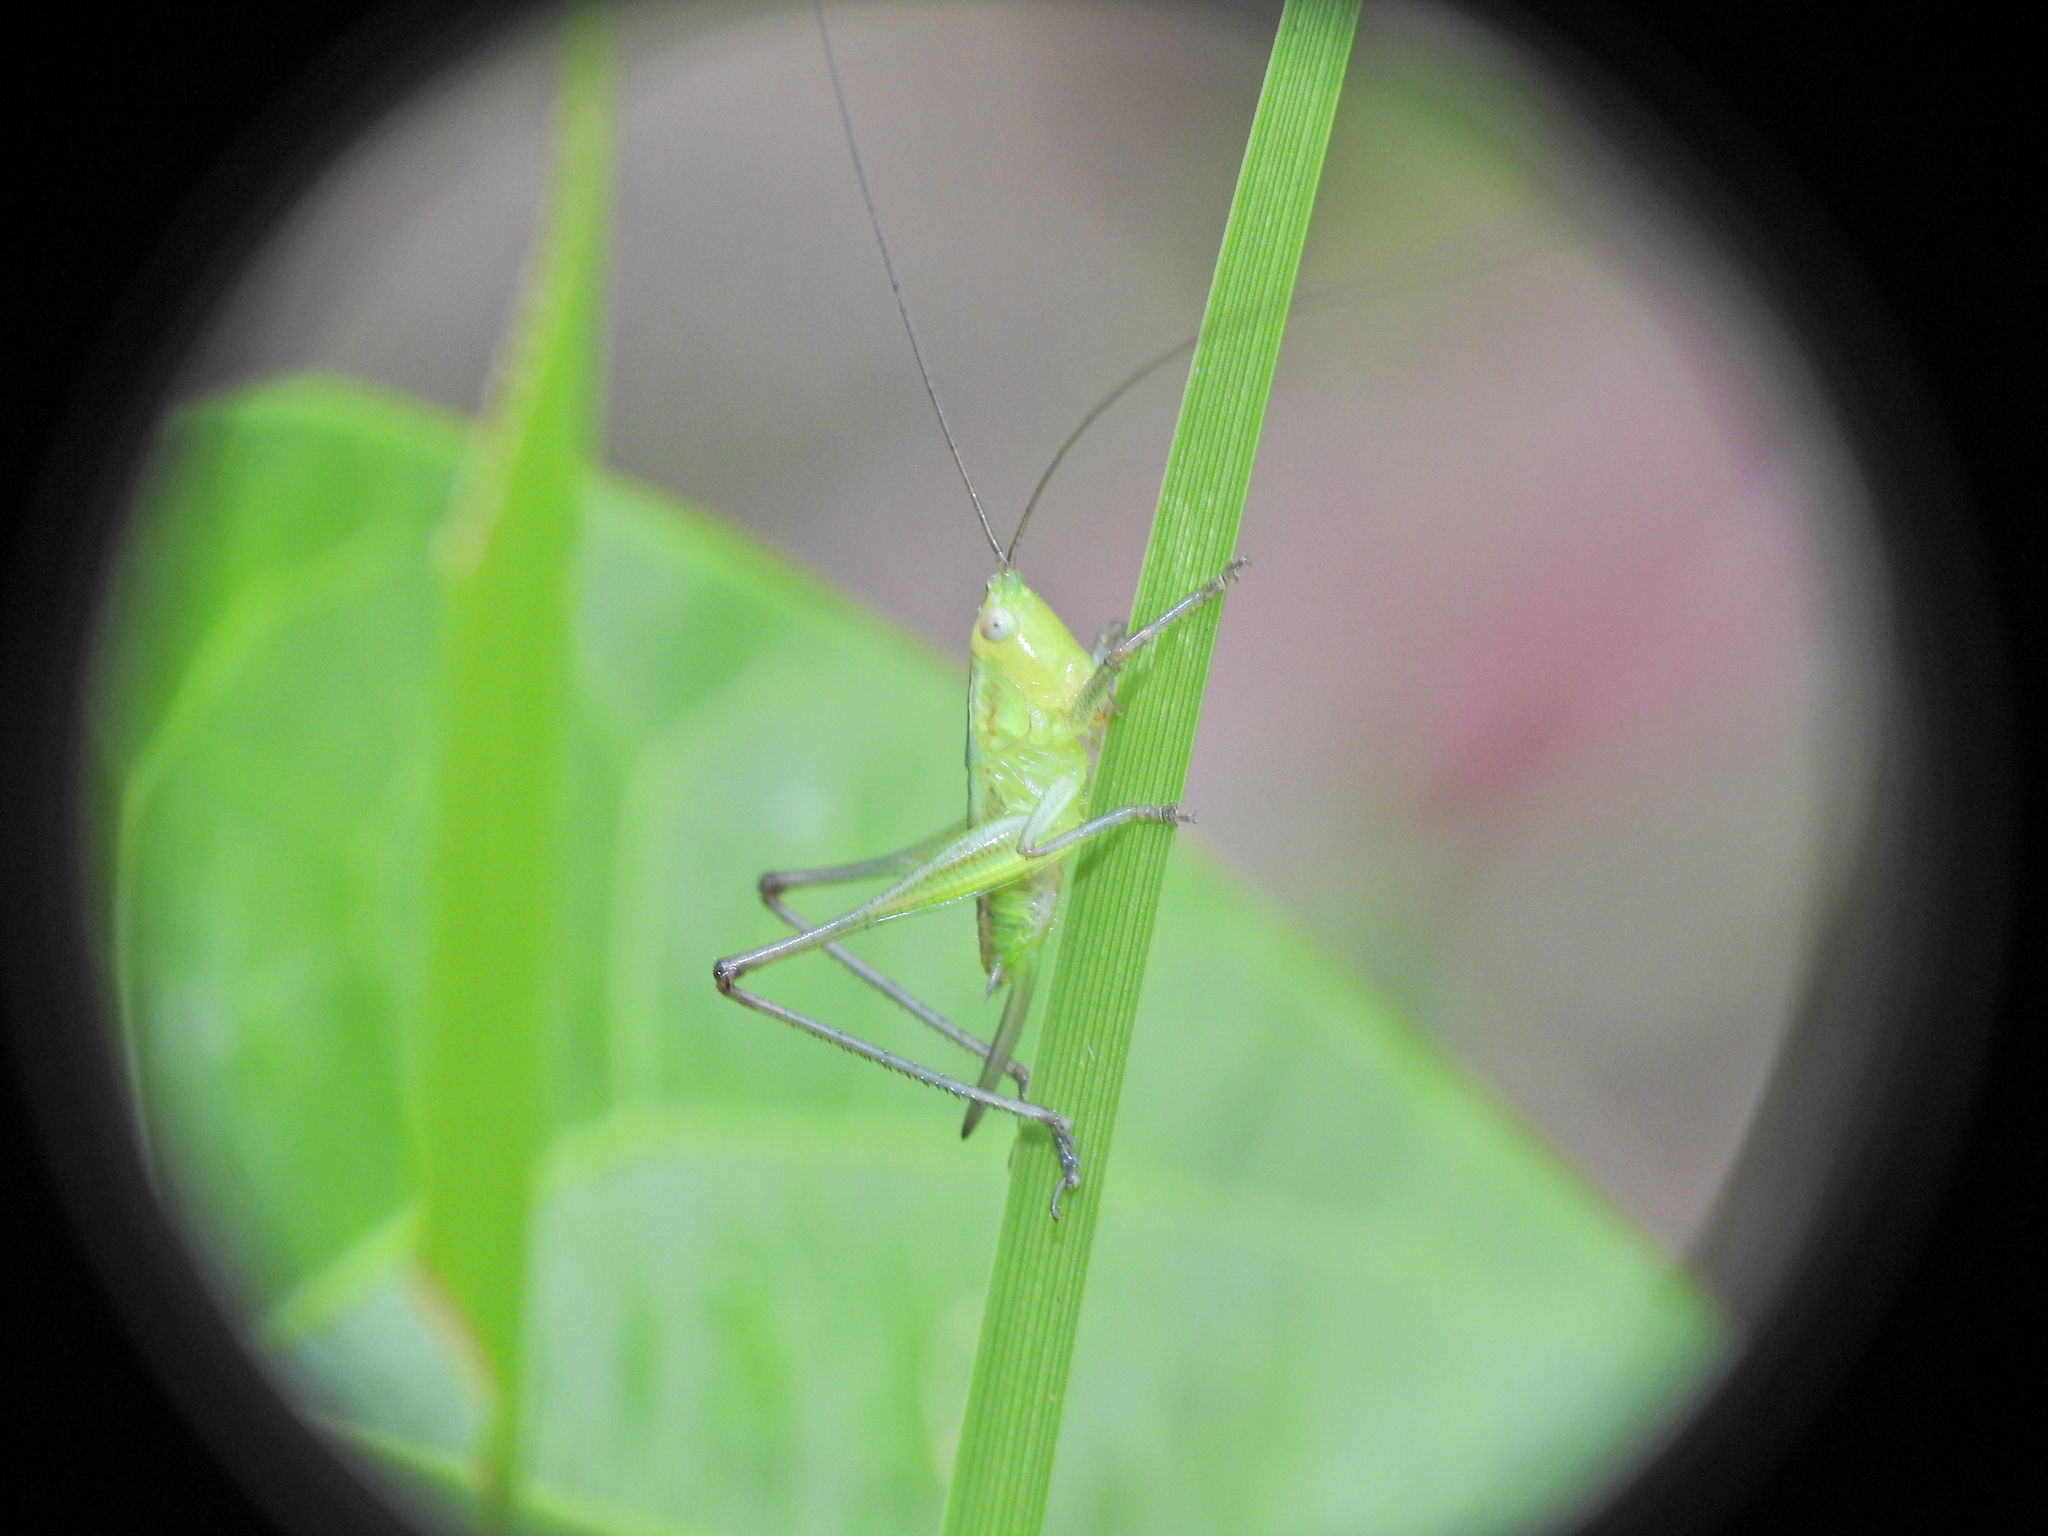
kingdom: Animalia
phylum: Arthropoda
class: Insecta
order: Orthoptera
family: Tettigoniidae
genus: Conocephalus
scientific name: Conocephalus semivittatus
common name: Blackish meadow katydid
